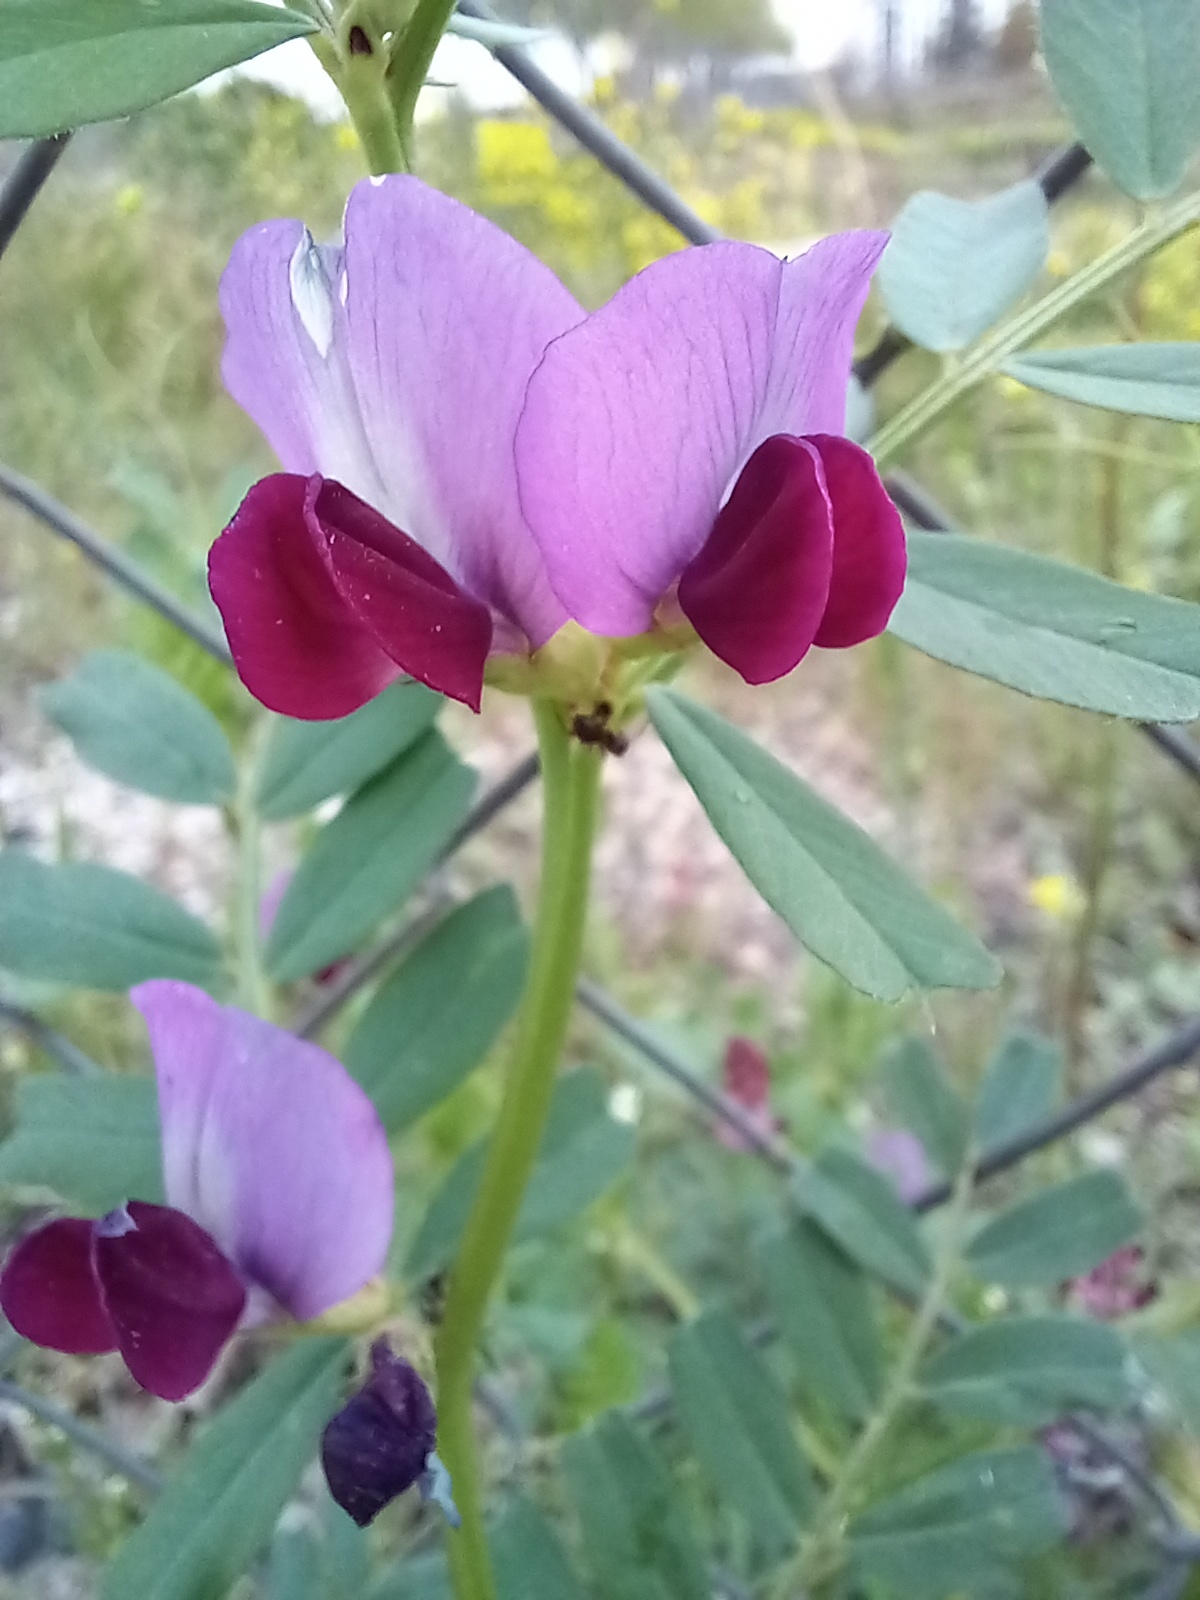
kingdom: Plantae
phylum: Tracheophyta
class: Magnoliopsida
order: Fabales
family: Fabaceae
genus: Vicia
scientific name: Vicia sativa
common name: Garden vetch
